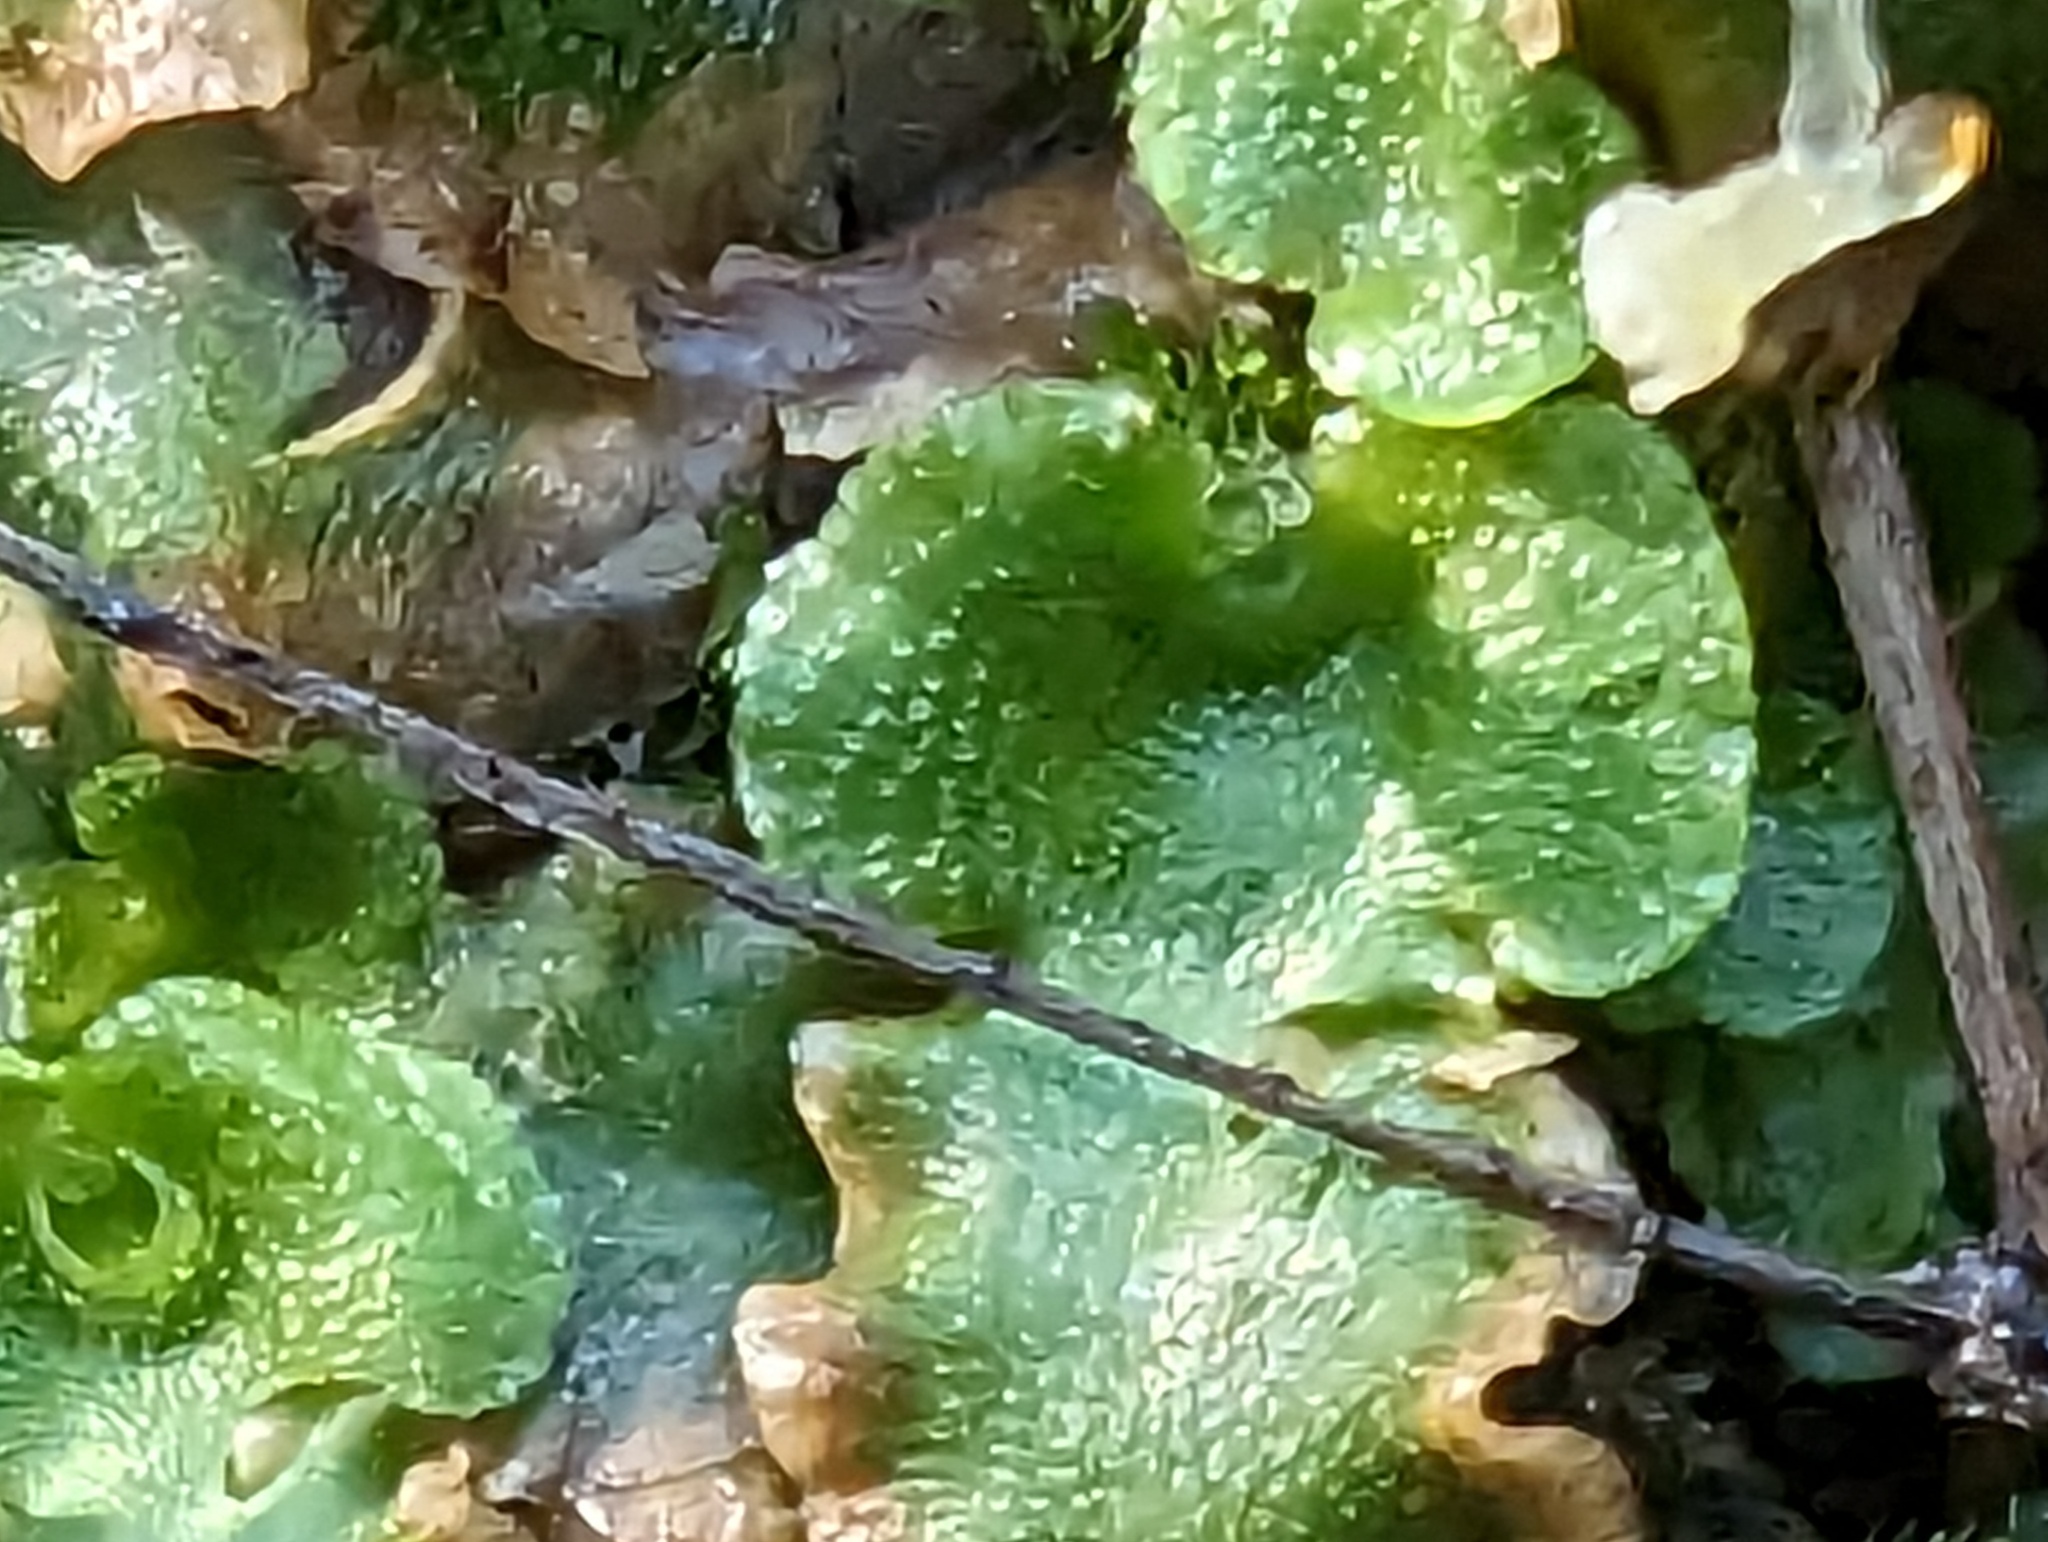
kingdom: Plantae
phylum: Marchantiophyta
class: Marchantiopsida
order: Lunulariales
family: Lunulariaceae
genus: Lunularia
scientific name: Lunularia cruciata
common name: Crescent-cup liverwort
